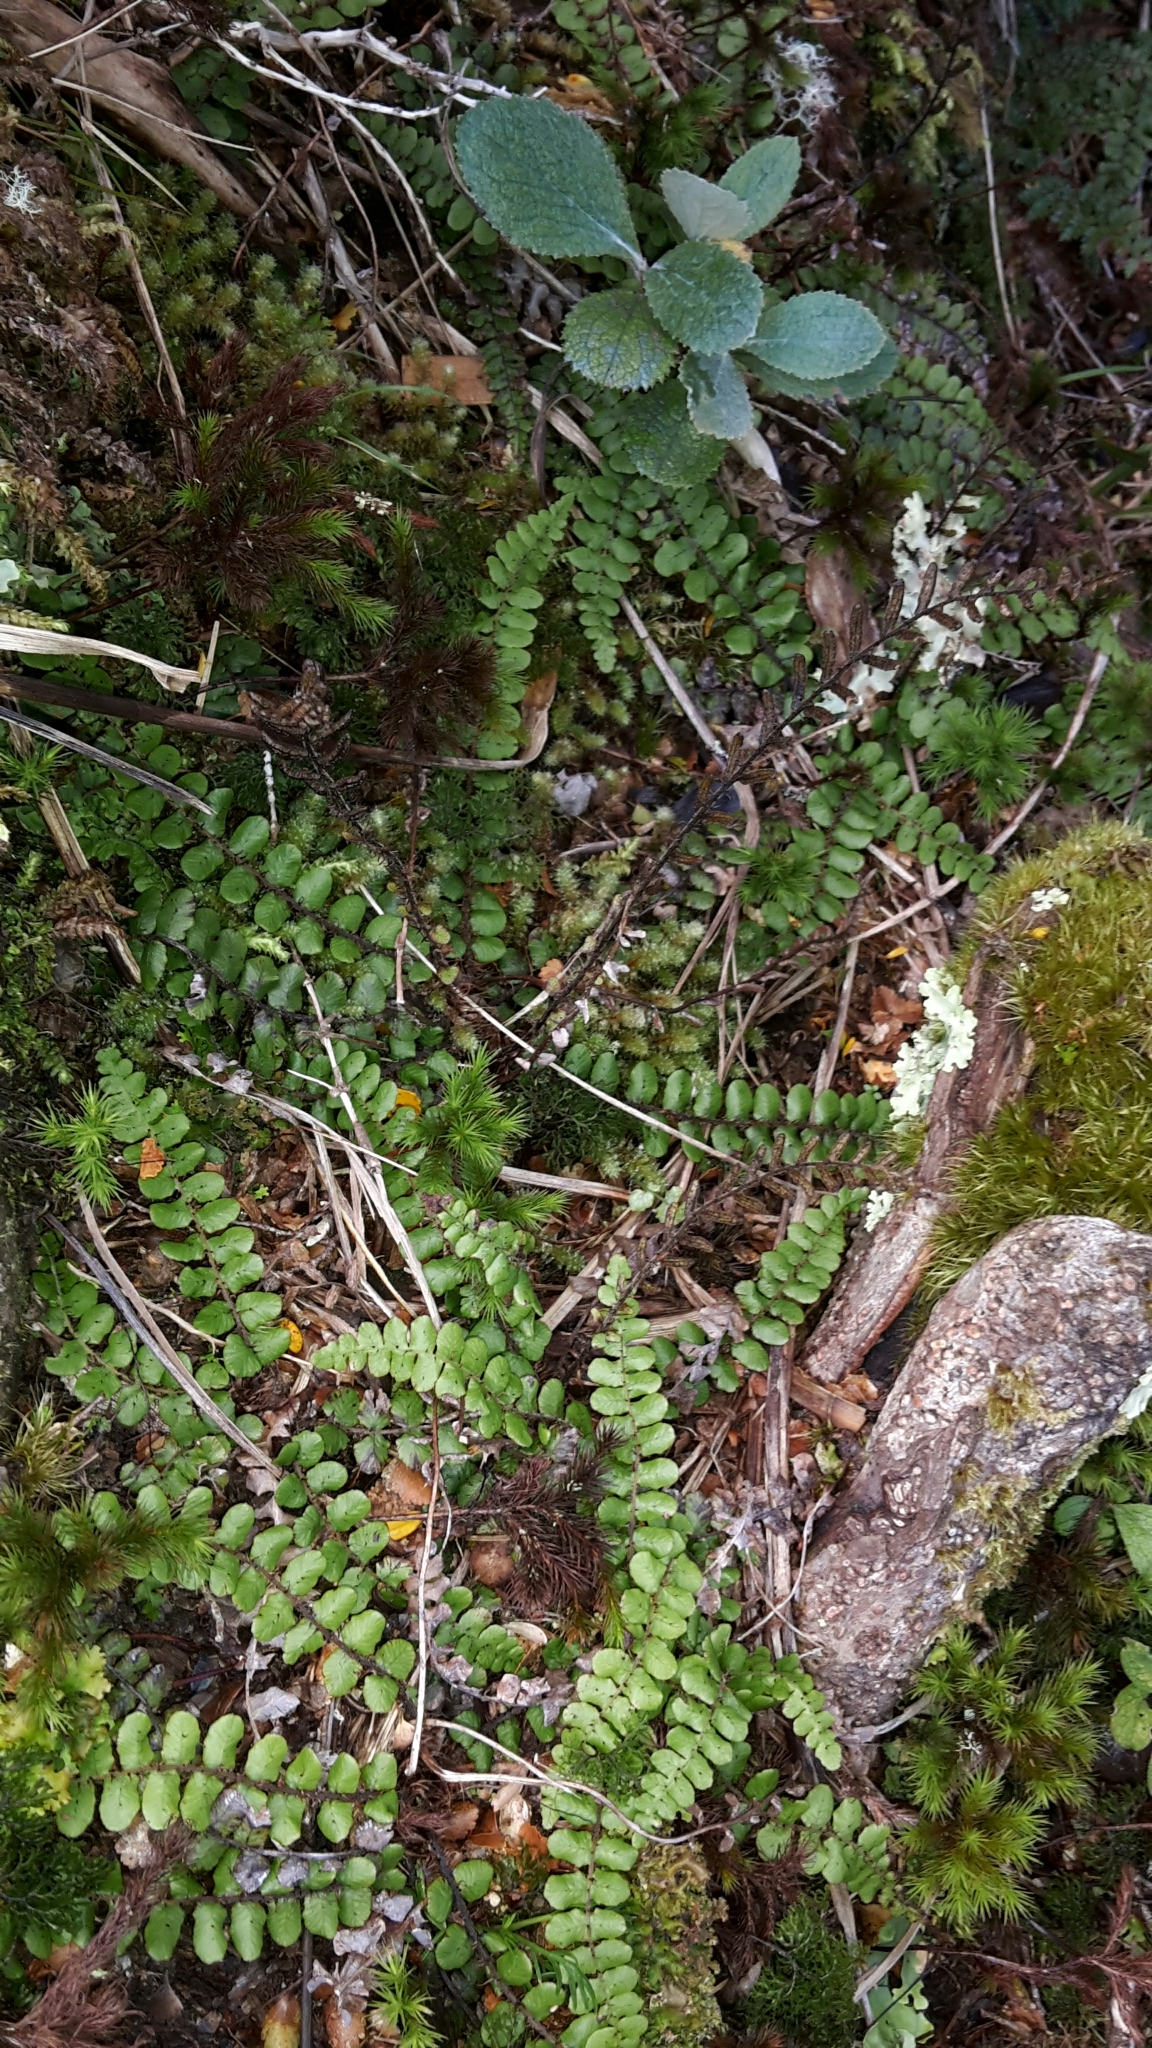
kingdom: Plantae
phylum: Tracheophyta
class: Polypodiopsida
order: Polypodiales
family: Blechnaceae
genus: Cranfillia
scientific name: Cranfillia fluviatilis
